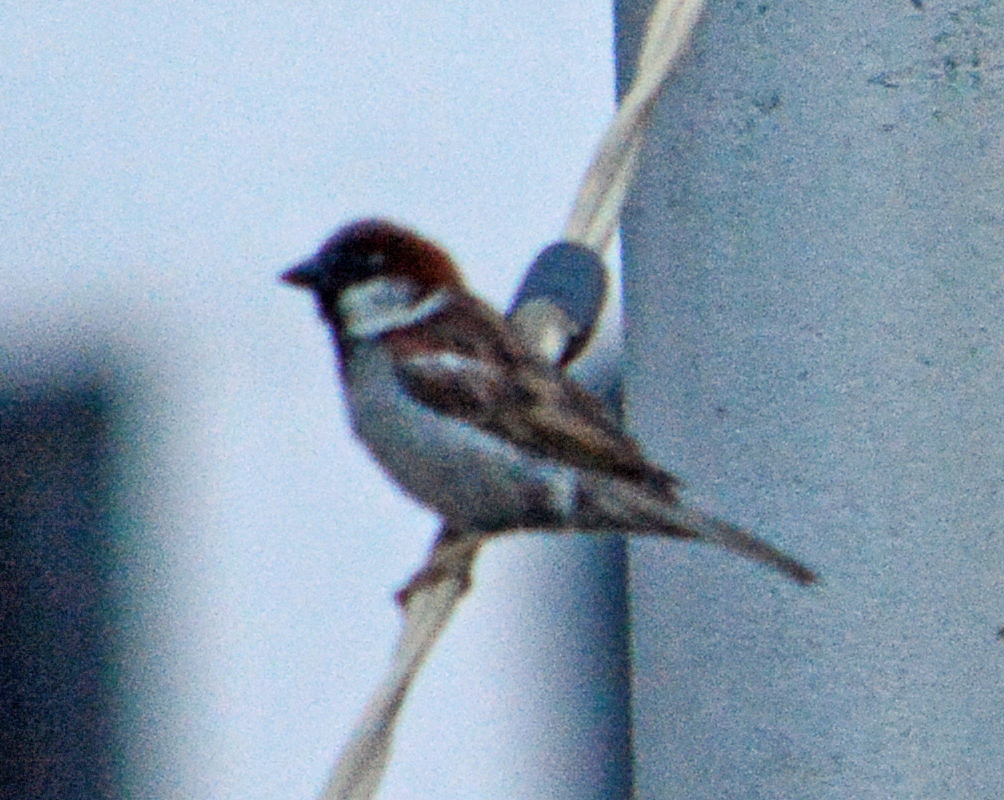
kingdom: Animalia
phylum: Chordata
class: Aves
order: Passeriformes
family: Passeridae
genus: Passer
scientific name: Passer domesticus
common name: House sparrow
